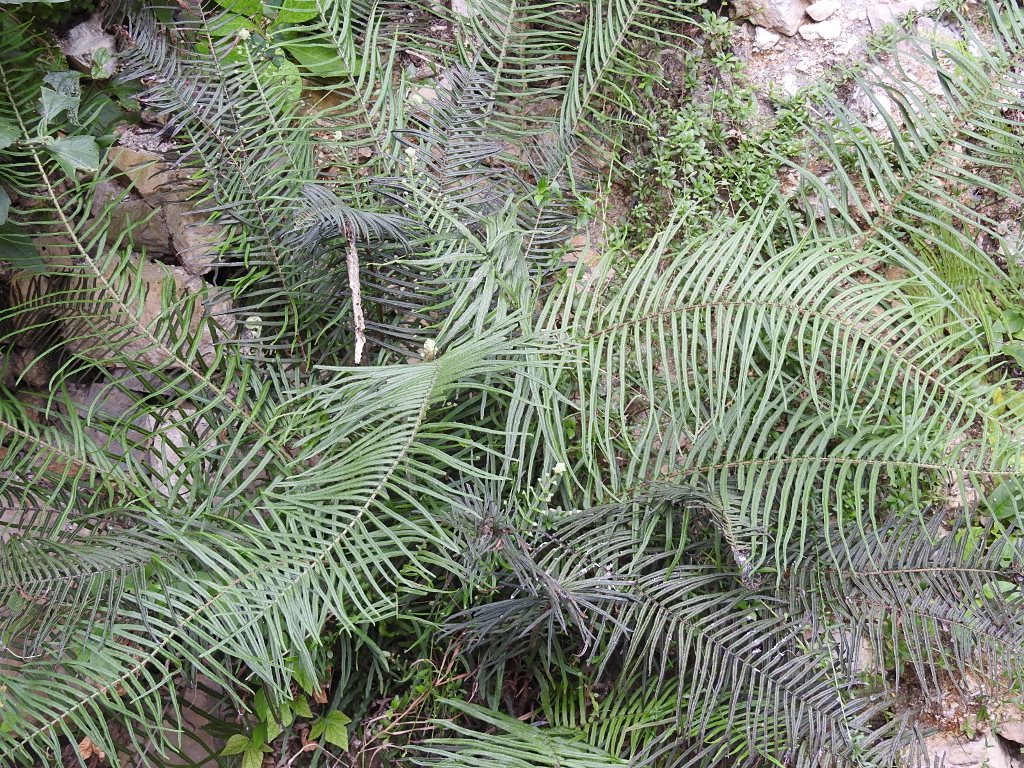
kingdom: Plantae
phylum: Tracheophyta
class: Polypodiopsida
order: Polypodiales
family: Pteridaceae
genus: Pteris
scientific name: Pteris longifolia
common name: Longleaf brake
